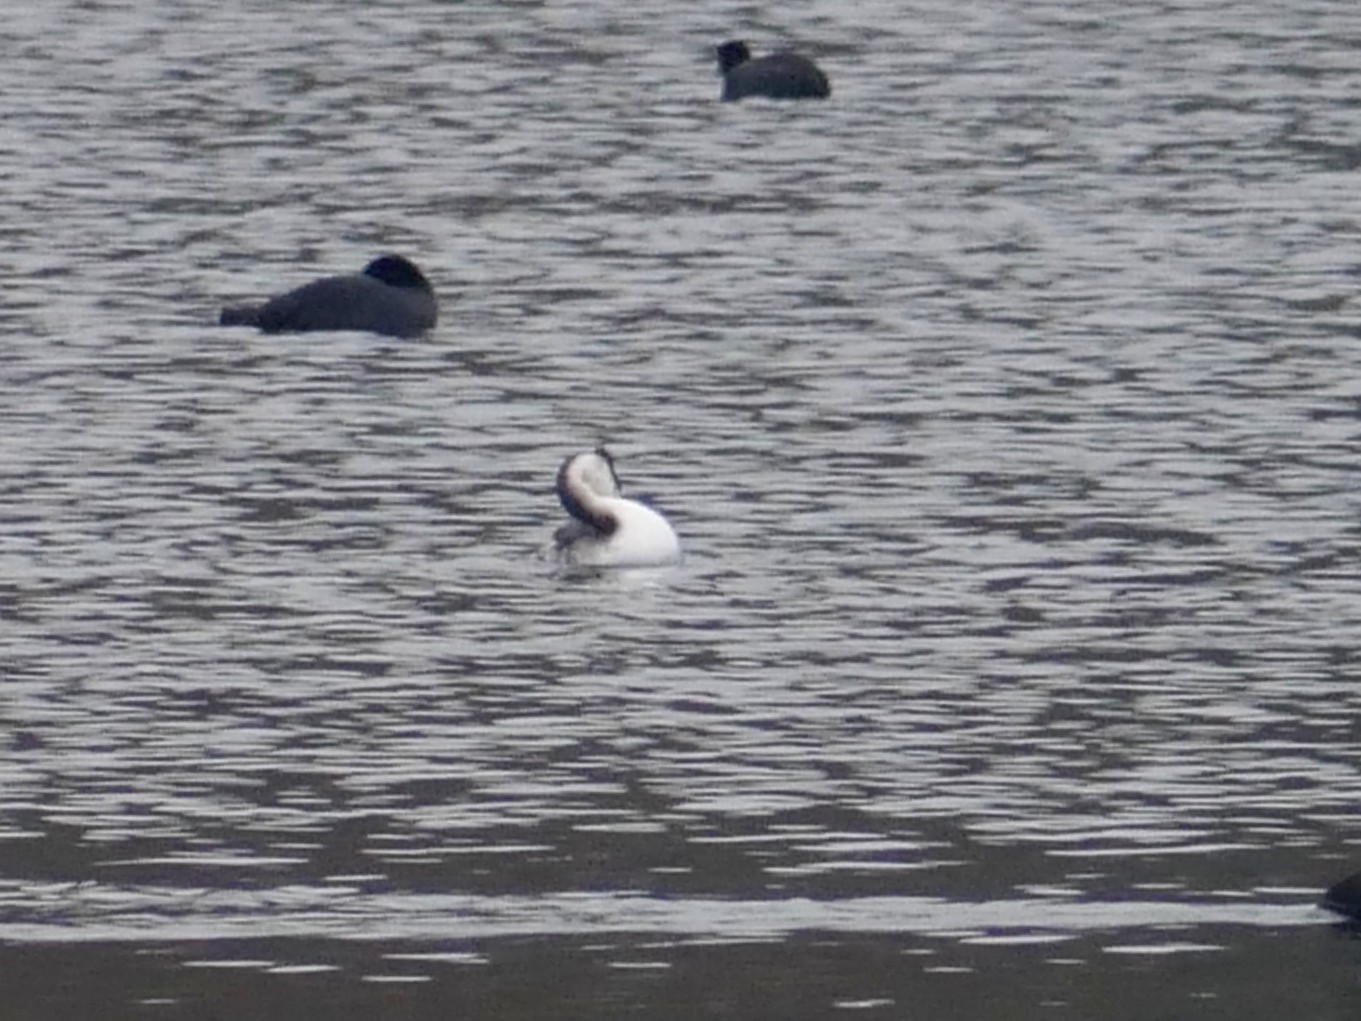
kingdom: Animalia
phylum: Chordata
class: Aves
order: Podicipediformes
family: Podicipedidae
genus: Podiceps
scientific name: Podiceps cristatus
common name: Great crested grebe
